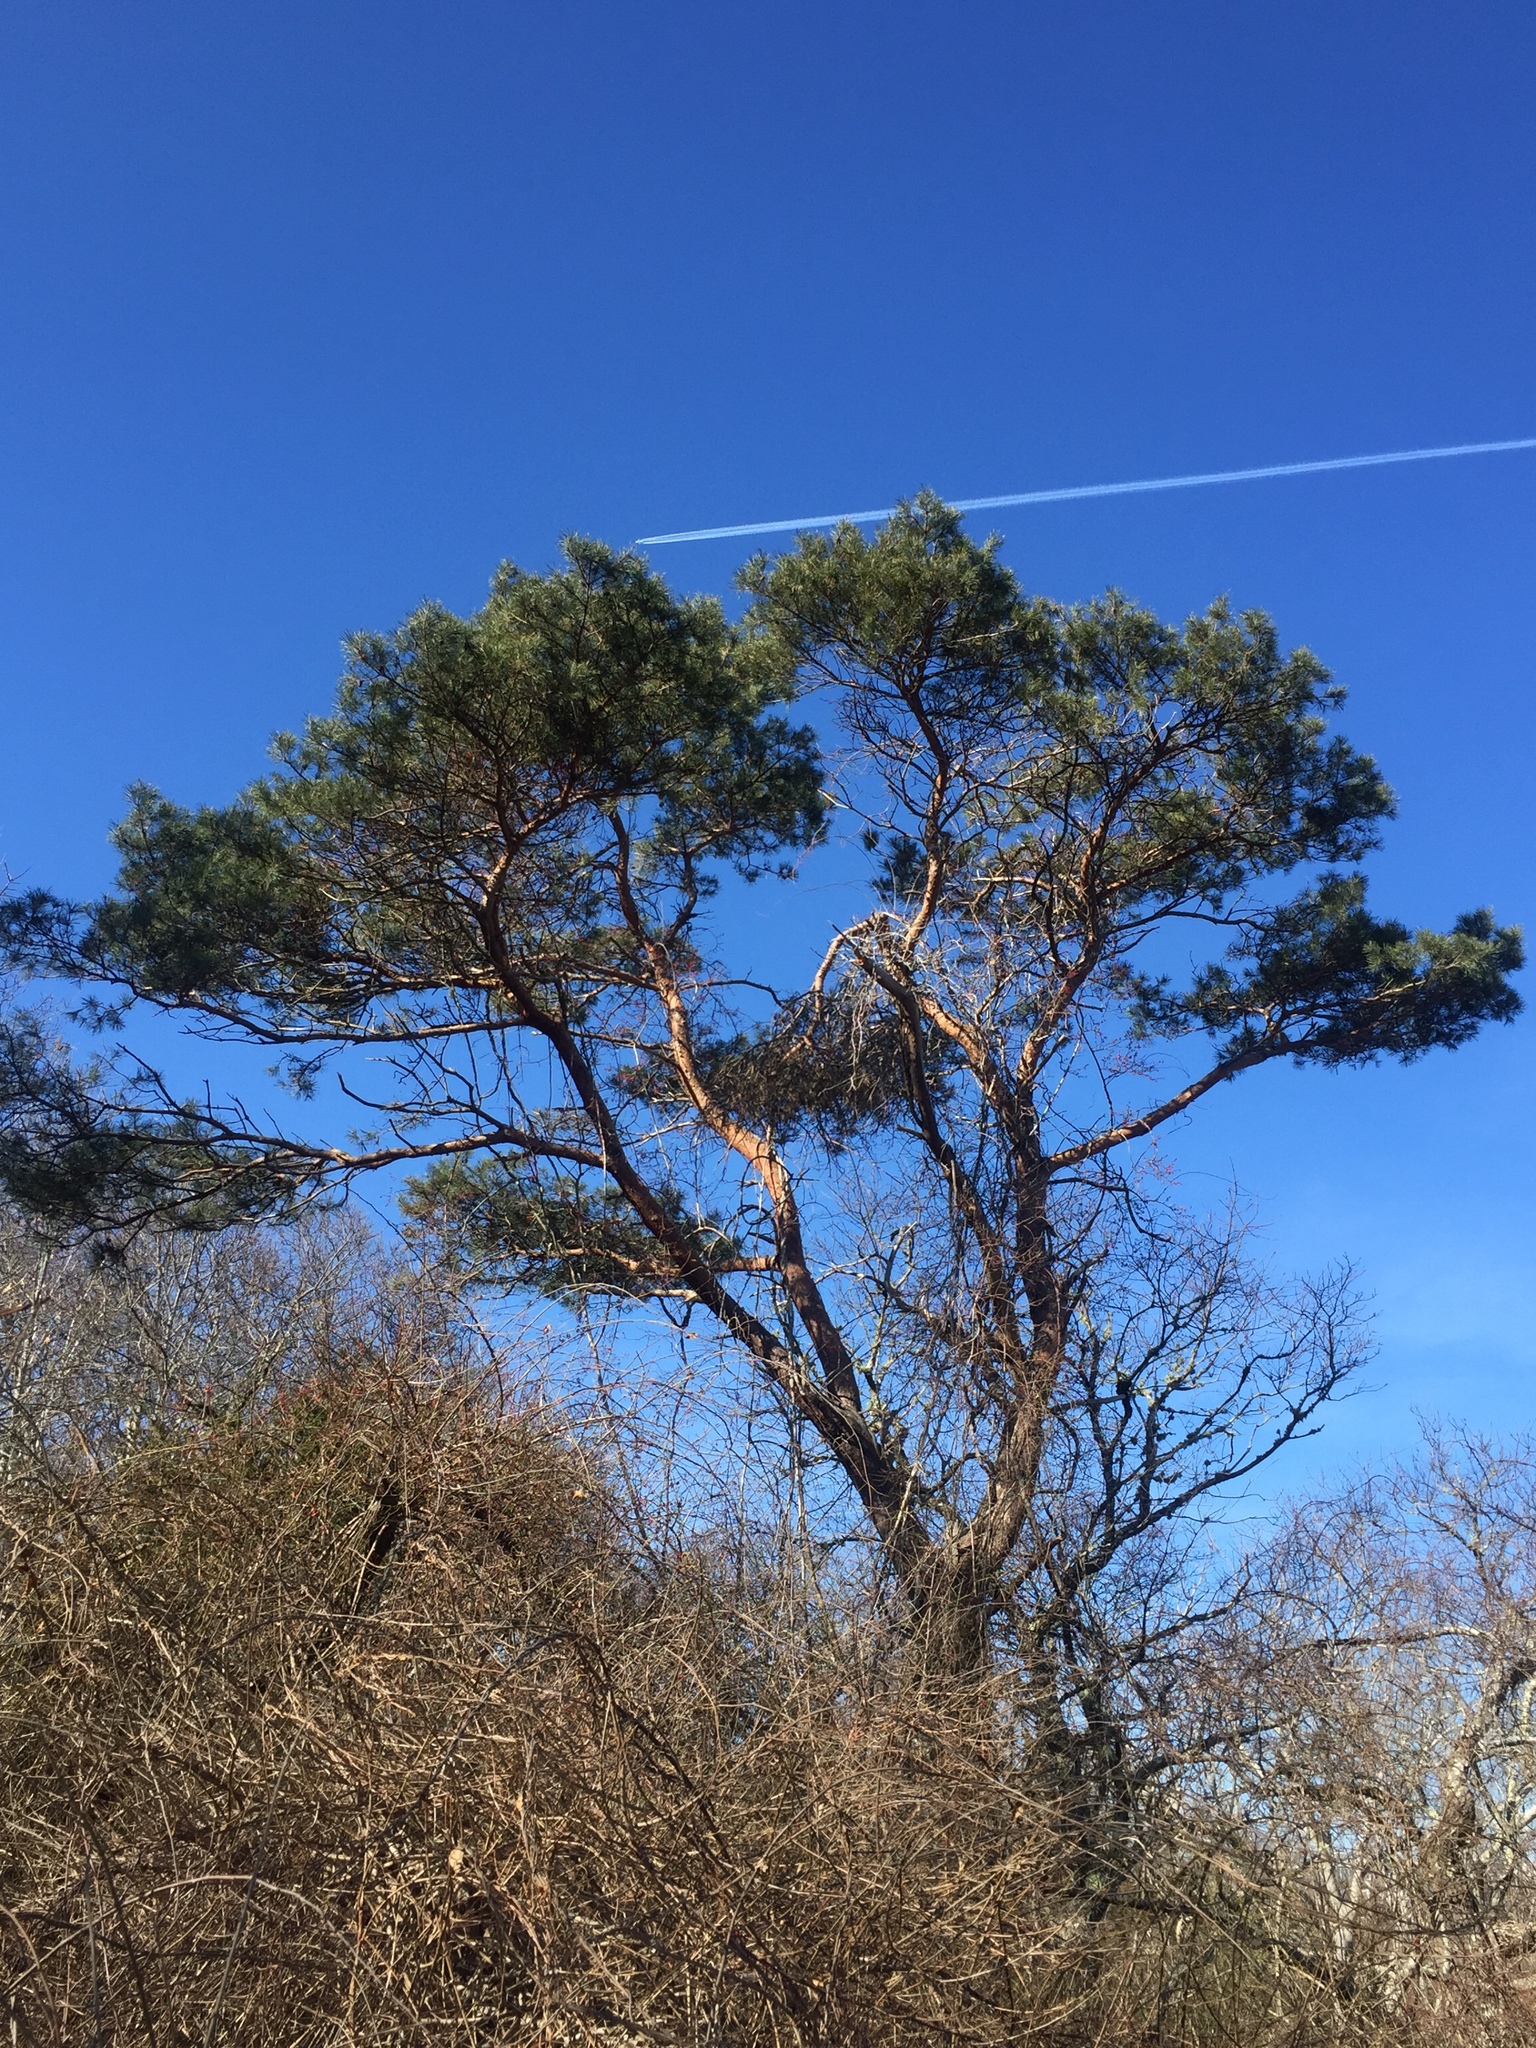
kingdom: Plantae
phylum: Tracheophyta
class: Pinopsida
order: Pinales
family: Pinaceae
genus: Pinus
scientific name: Pinus sylvestris
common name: Scots pine
